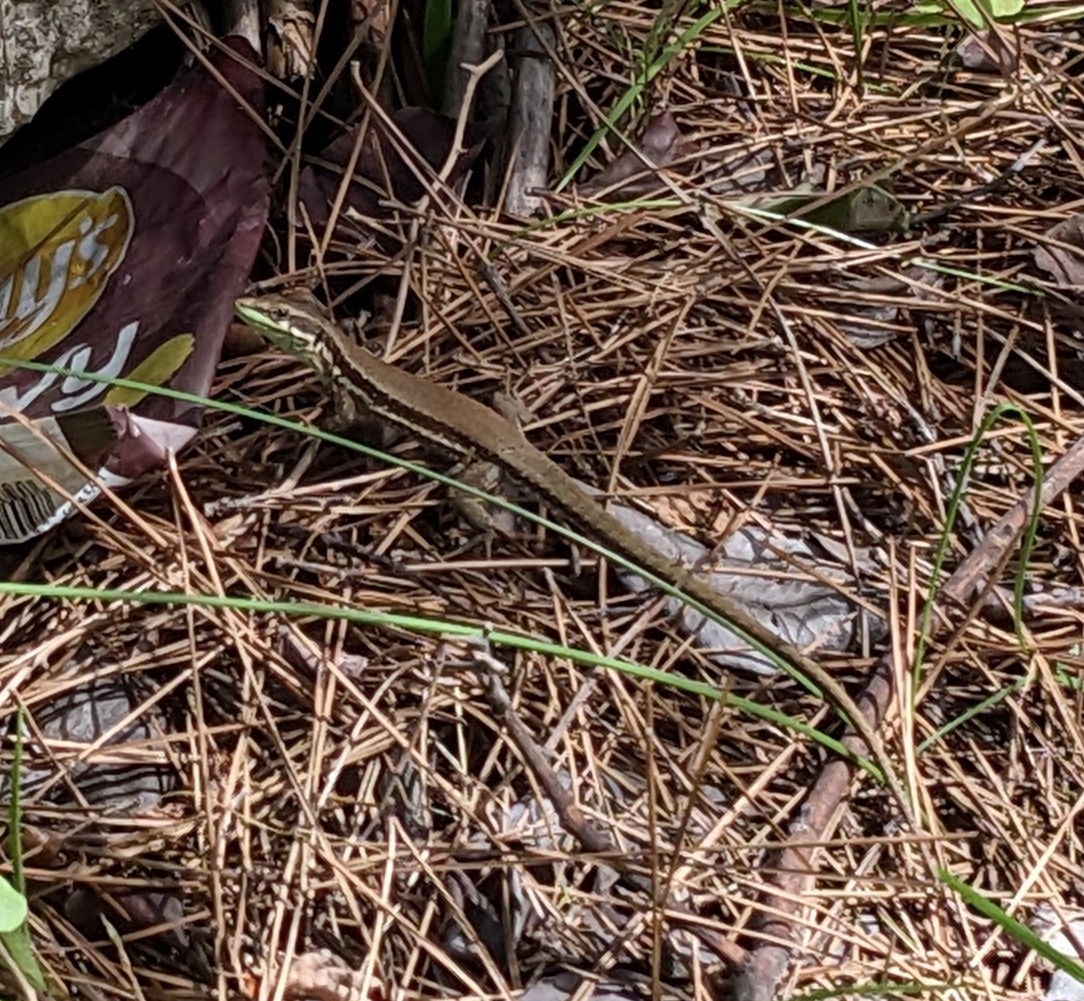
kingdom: Animalia
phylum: Chordata
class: Squamata
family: Lacertidae
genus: Phoenicolacerta
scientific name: Phoenicolacerta troodica
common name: Troodos wall lizard
